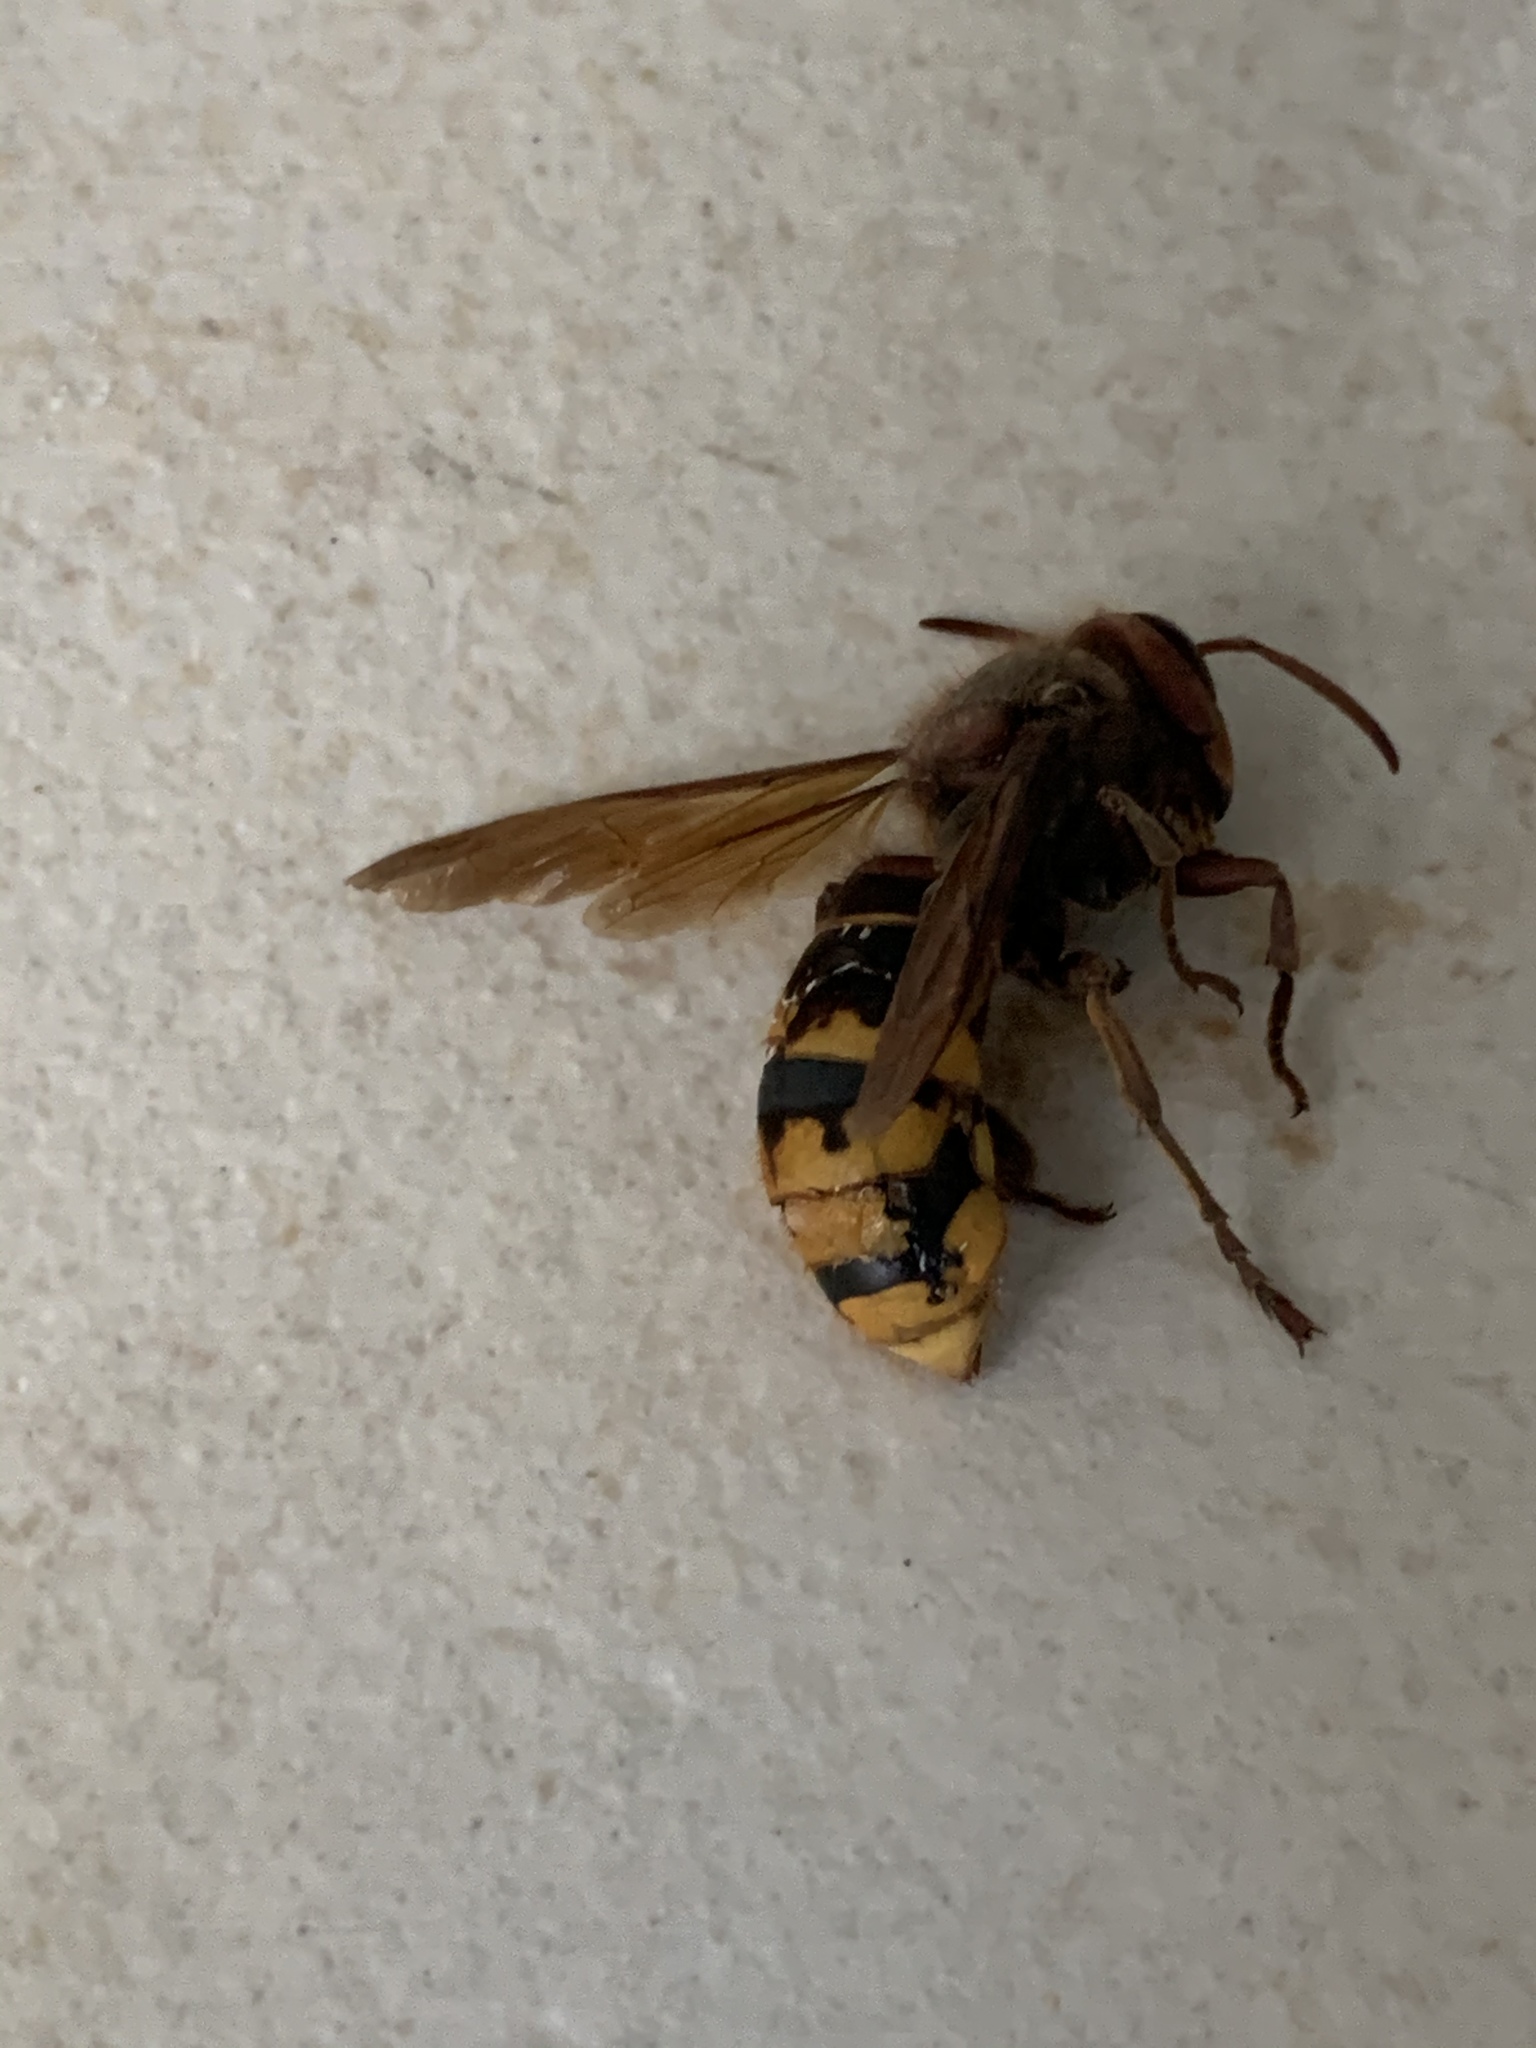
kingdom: Animalia
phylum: Arthropoda
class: Insecta
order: Hymenoptera
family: Vespidae
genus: Vespa
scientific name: Vespa crabro
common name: Hornet
